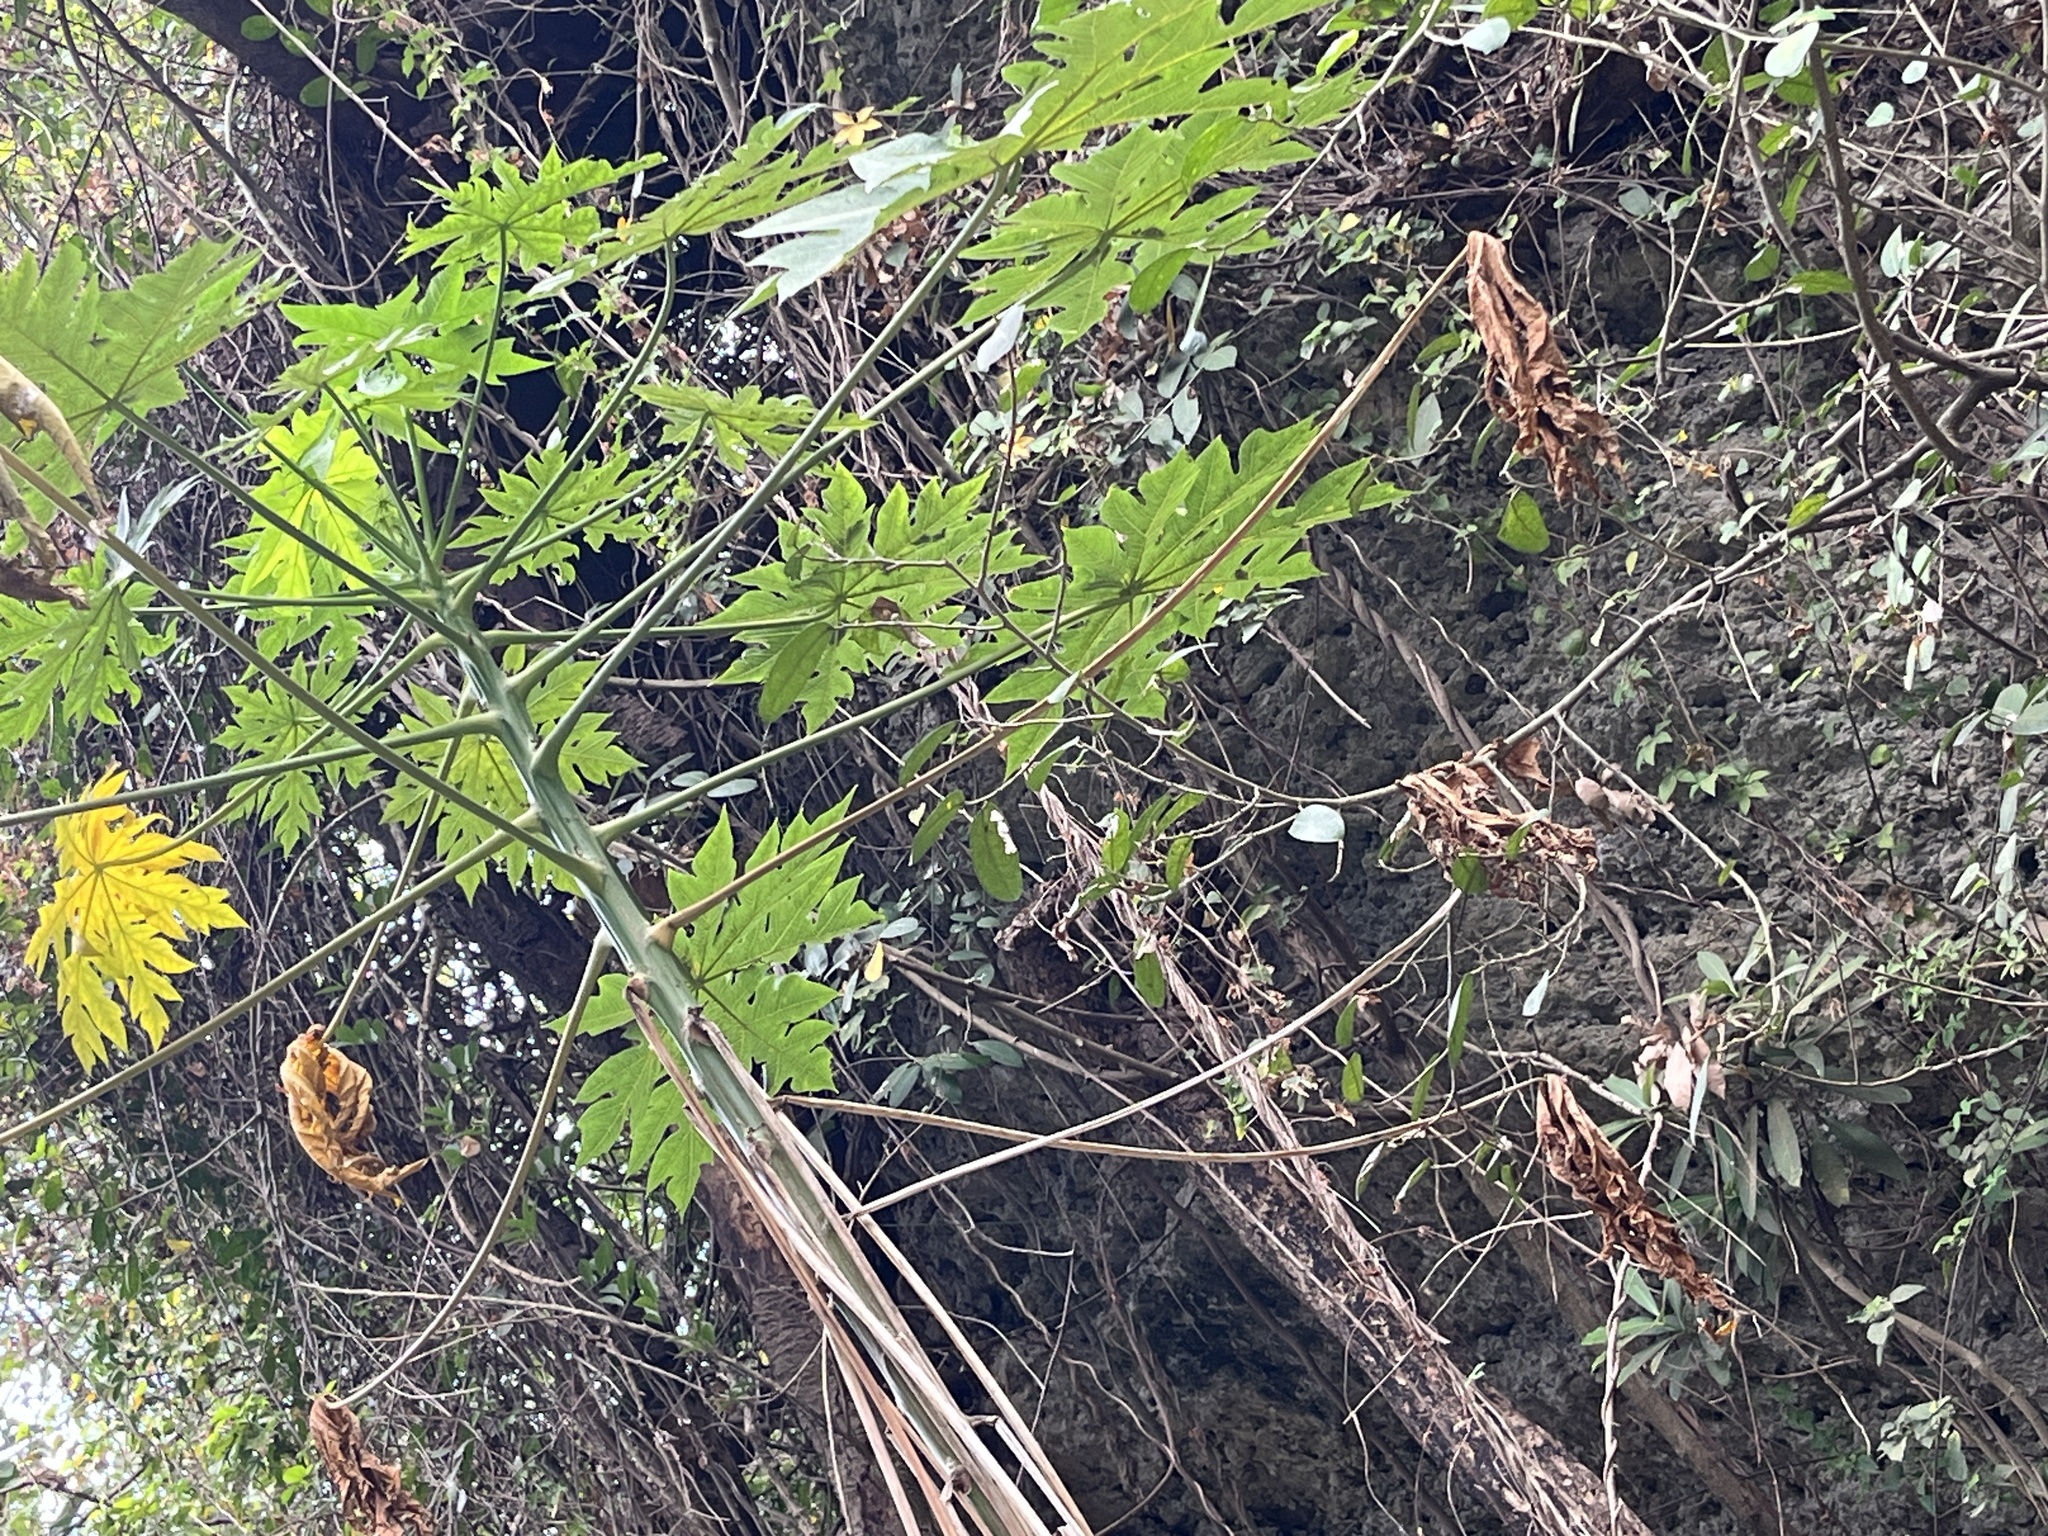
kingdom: Plantae
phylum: Tracheophyta
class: Magnoliopsida
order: Brassicales
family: Caricaceae
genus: Carica
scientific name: Carica papaya
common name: Papaya
